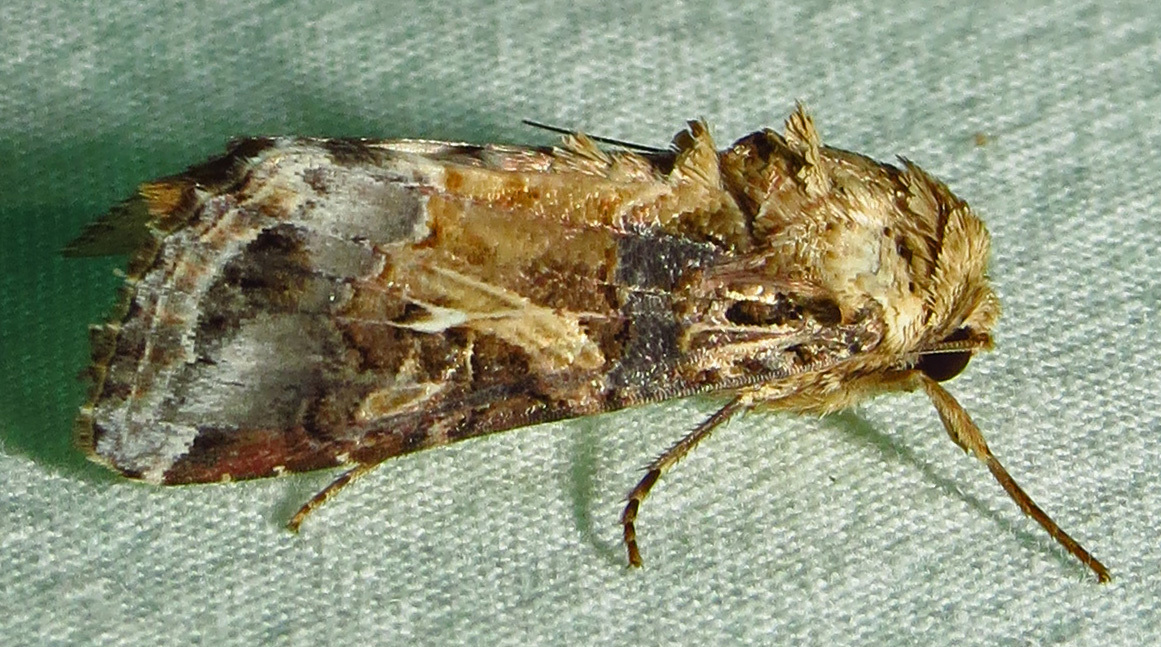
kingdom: Animalia
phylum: Arthropoda
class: Insecta
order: Lepidoptera
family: Noctuidae
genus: Spodoptera
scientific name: Spodoptera ornithogalli
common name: Yellow-striped armyworm
